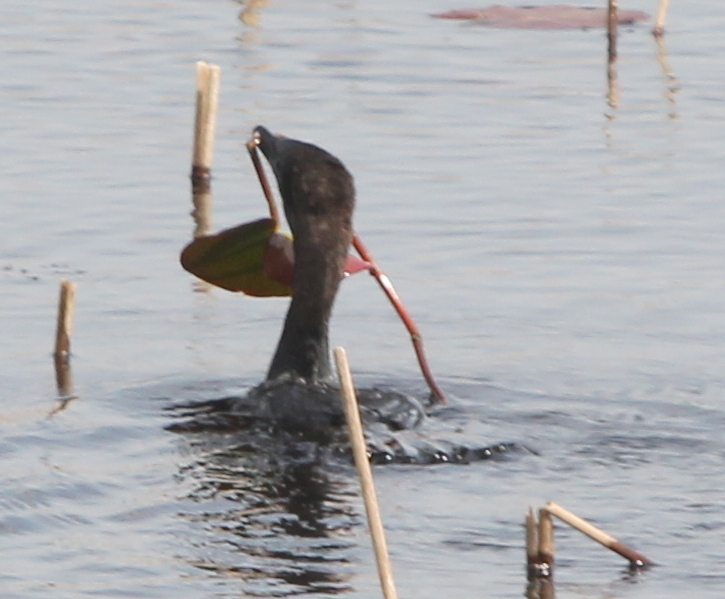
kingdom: Animalia
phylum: Chordata
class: Aves
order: Suliformes
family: Phalacrocoracidae
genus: Microcarbo
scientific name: Microcarbo pygmaeus
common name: Pygmy cormorant
